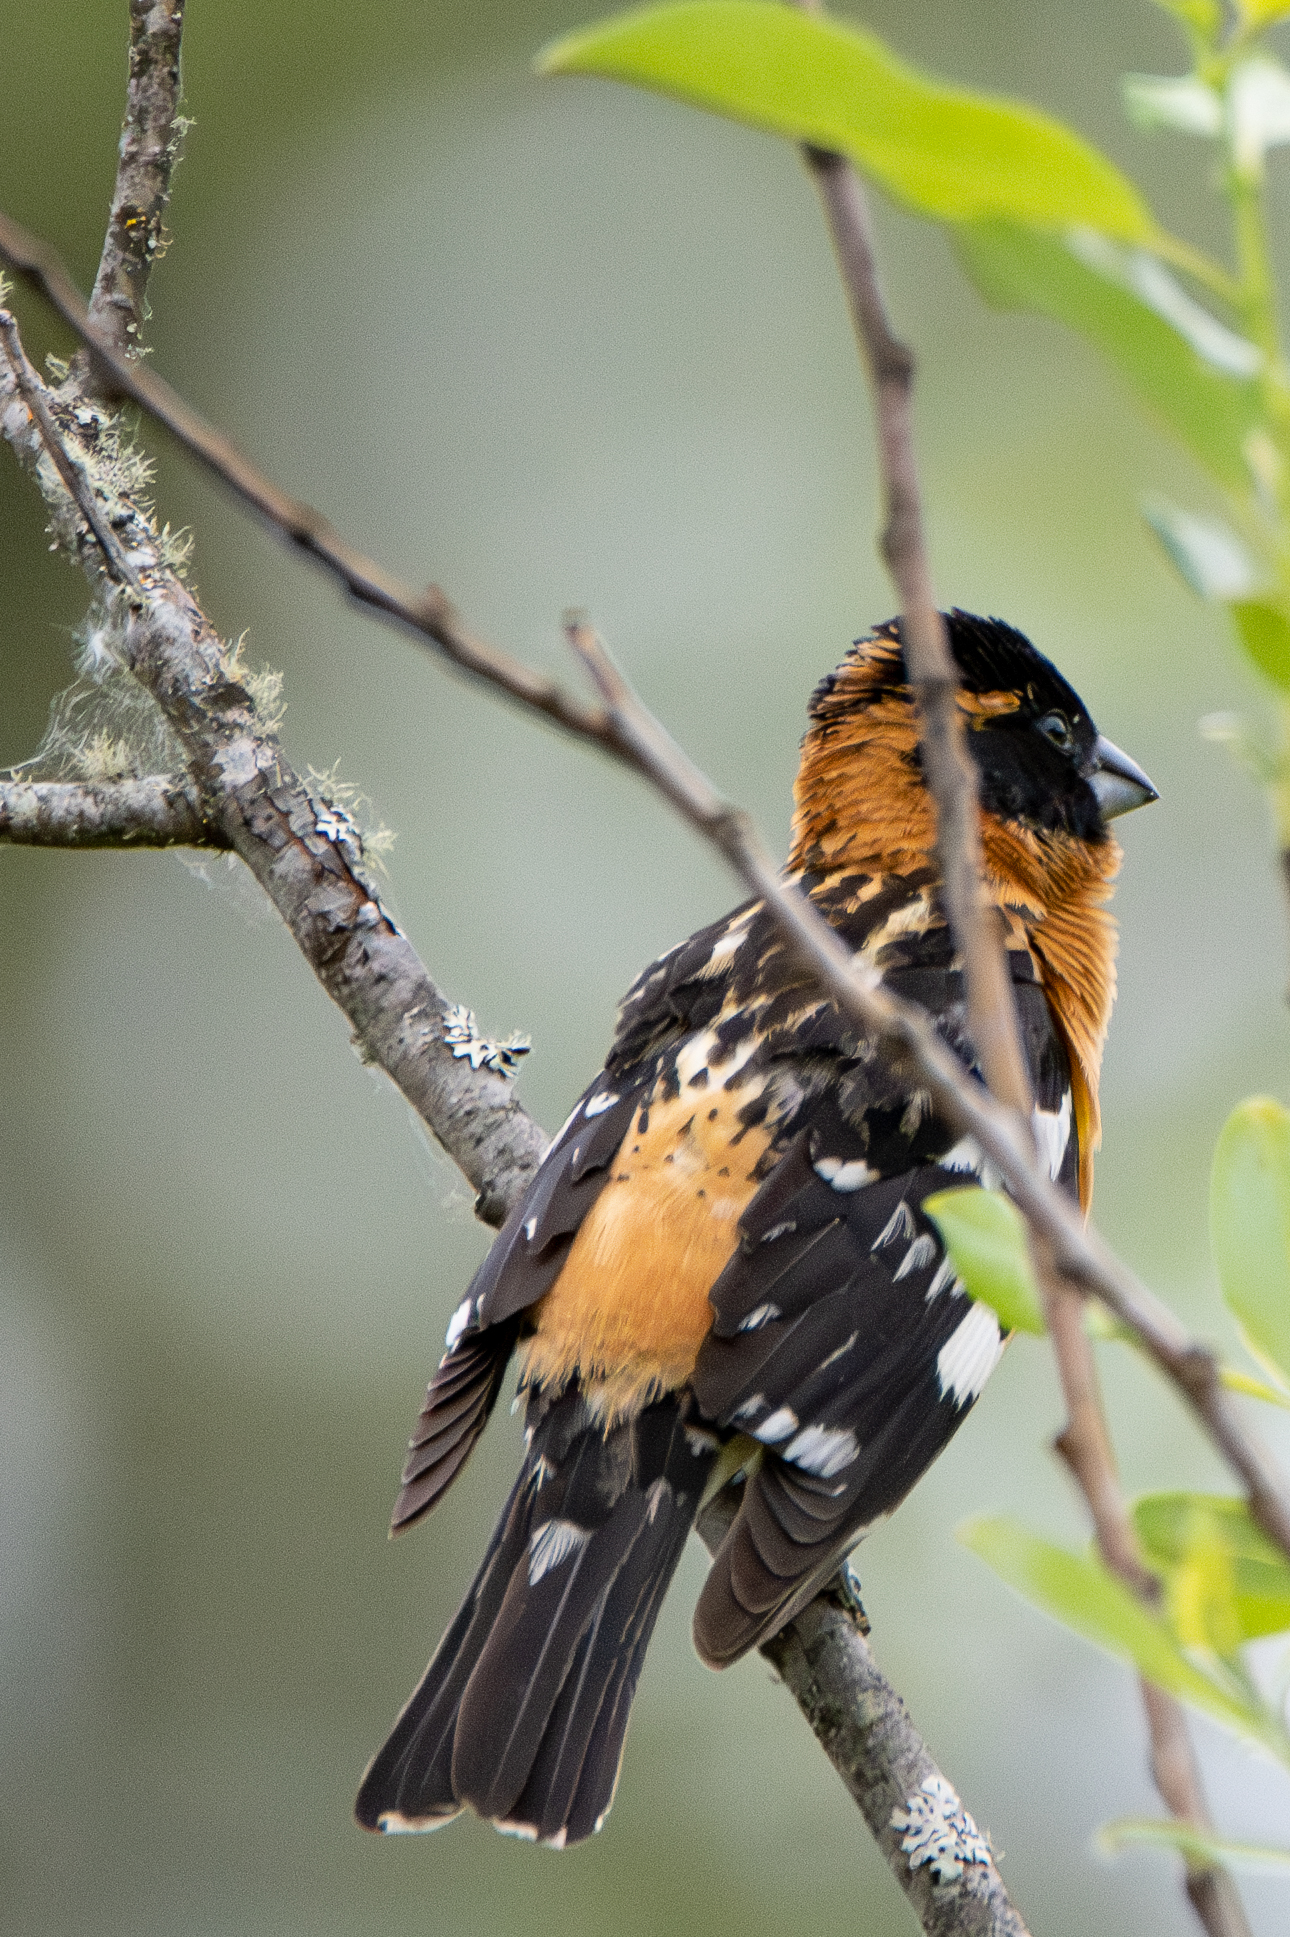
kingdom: Animalia
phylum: Chordata
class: Aves
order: Passeriformes
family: Cardinalidae
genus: Pheucticus
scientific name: Pheucticus melanocephalus
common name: Black-headed grosbeak
